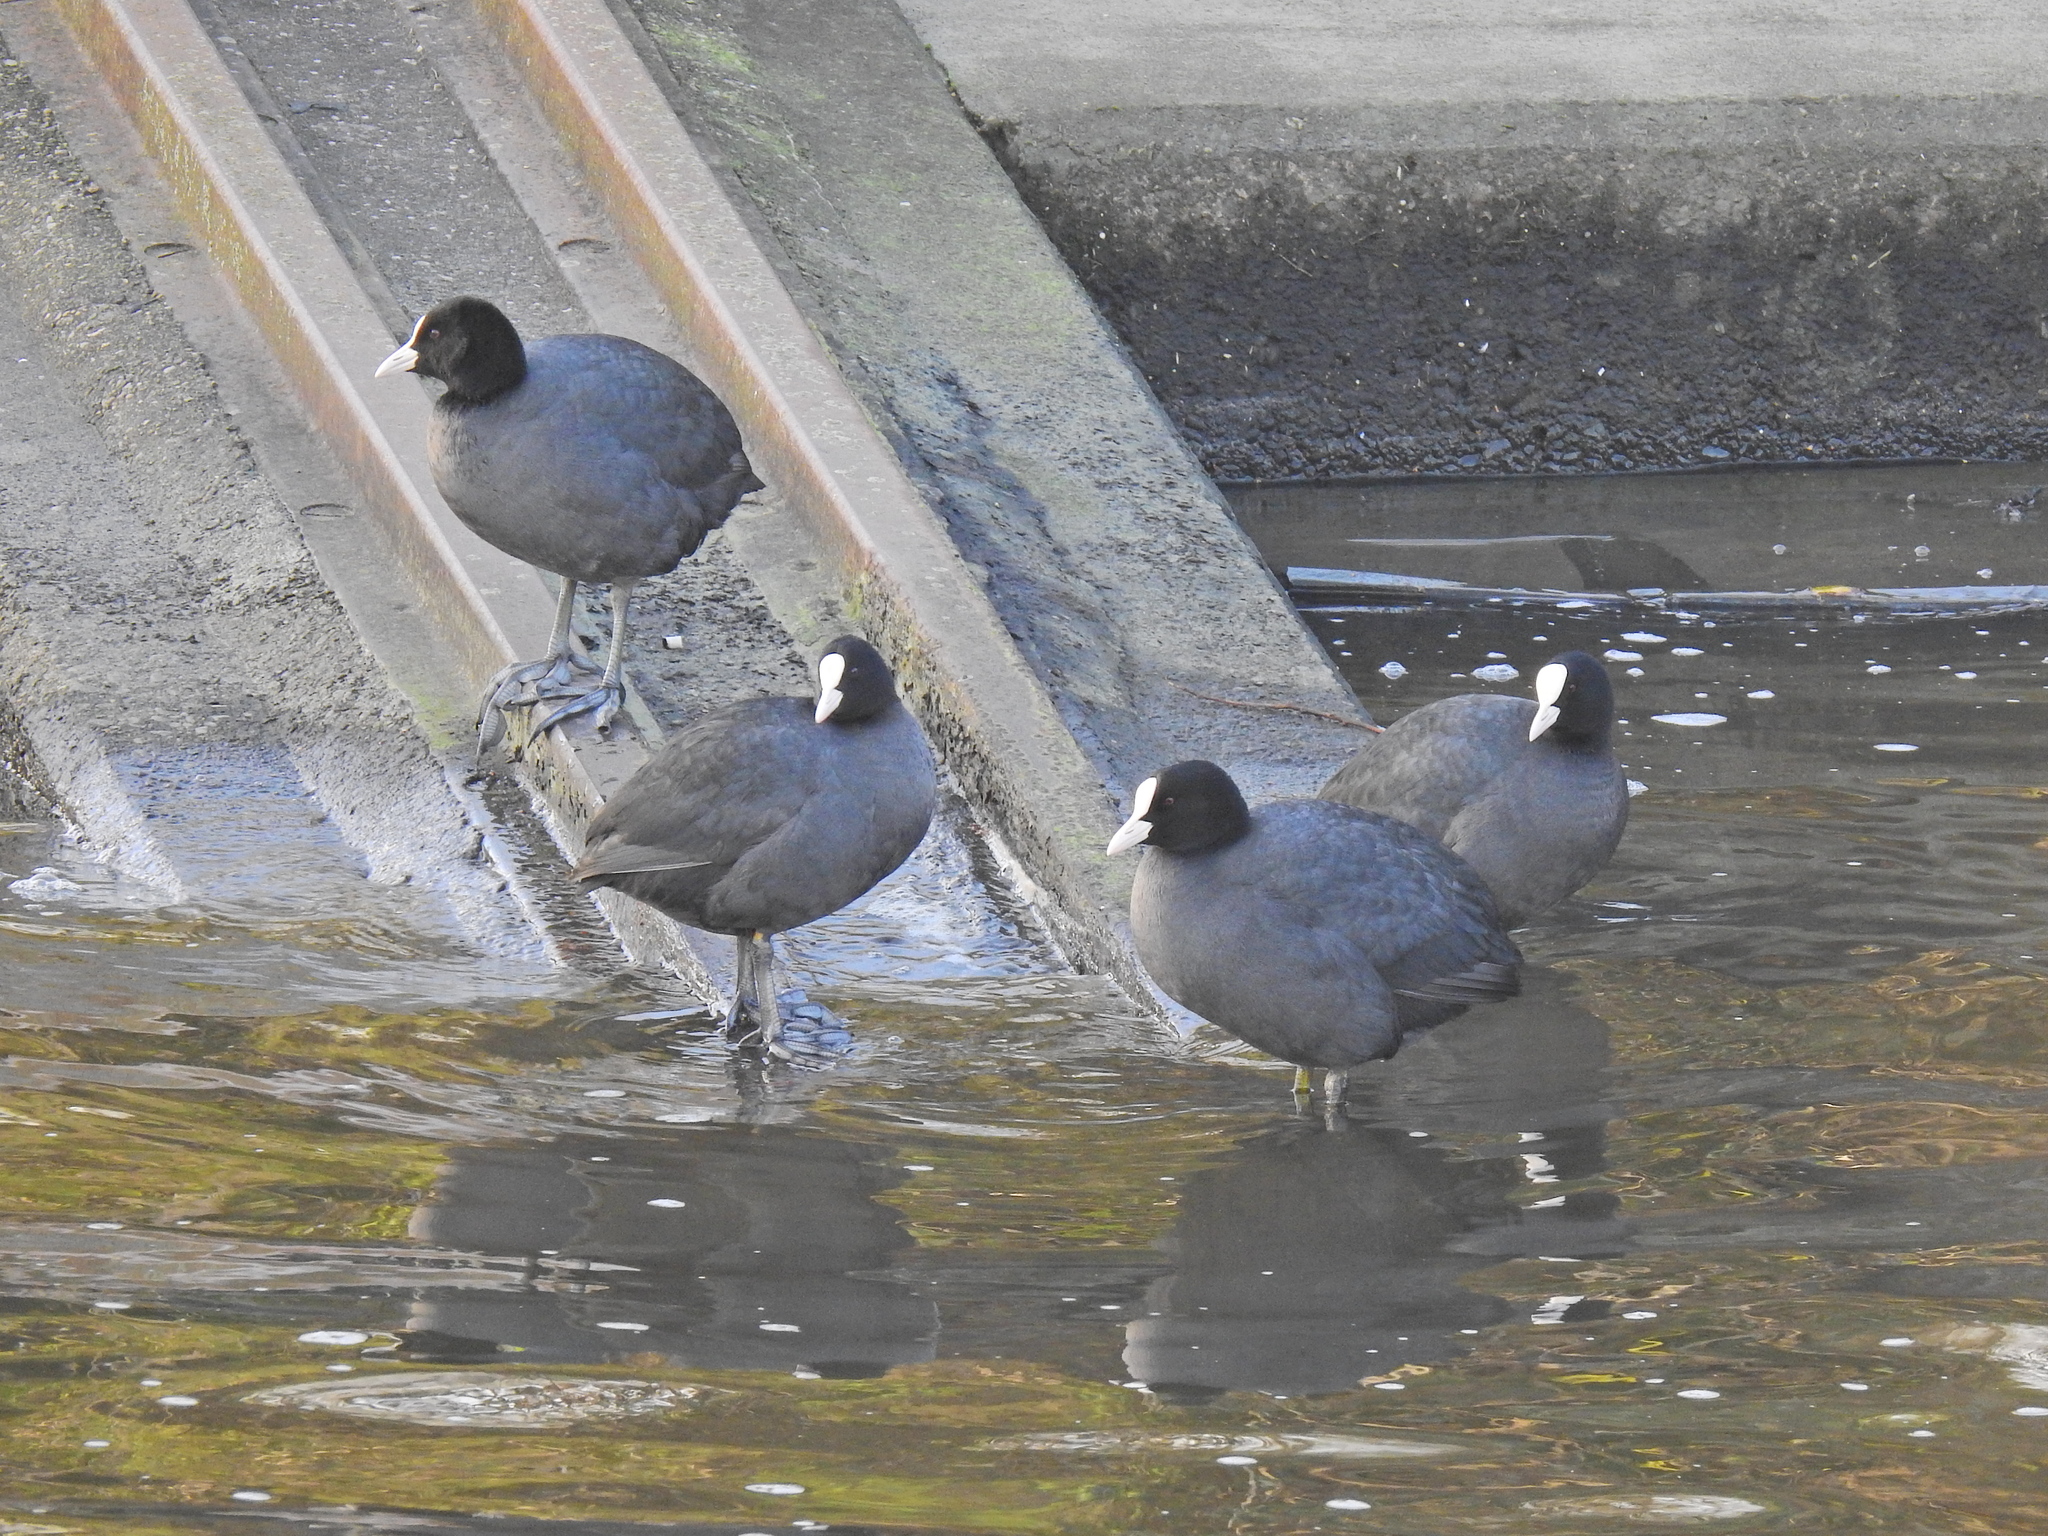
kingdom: Animalia
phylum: Chordata
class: Aves
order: Gruiformes
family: Rallidae
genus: Fulica
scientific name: Fulica atra
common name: Eurasian coot
